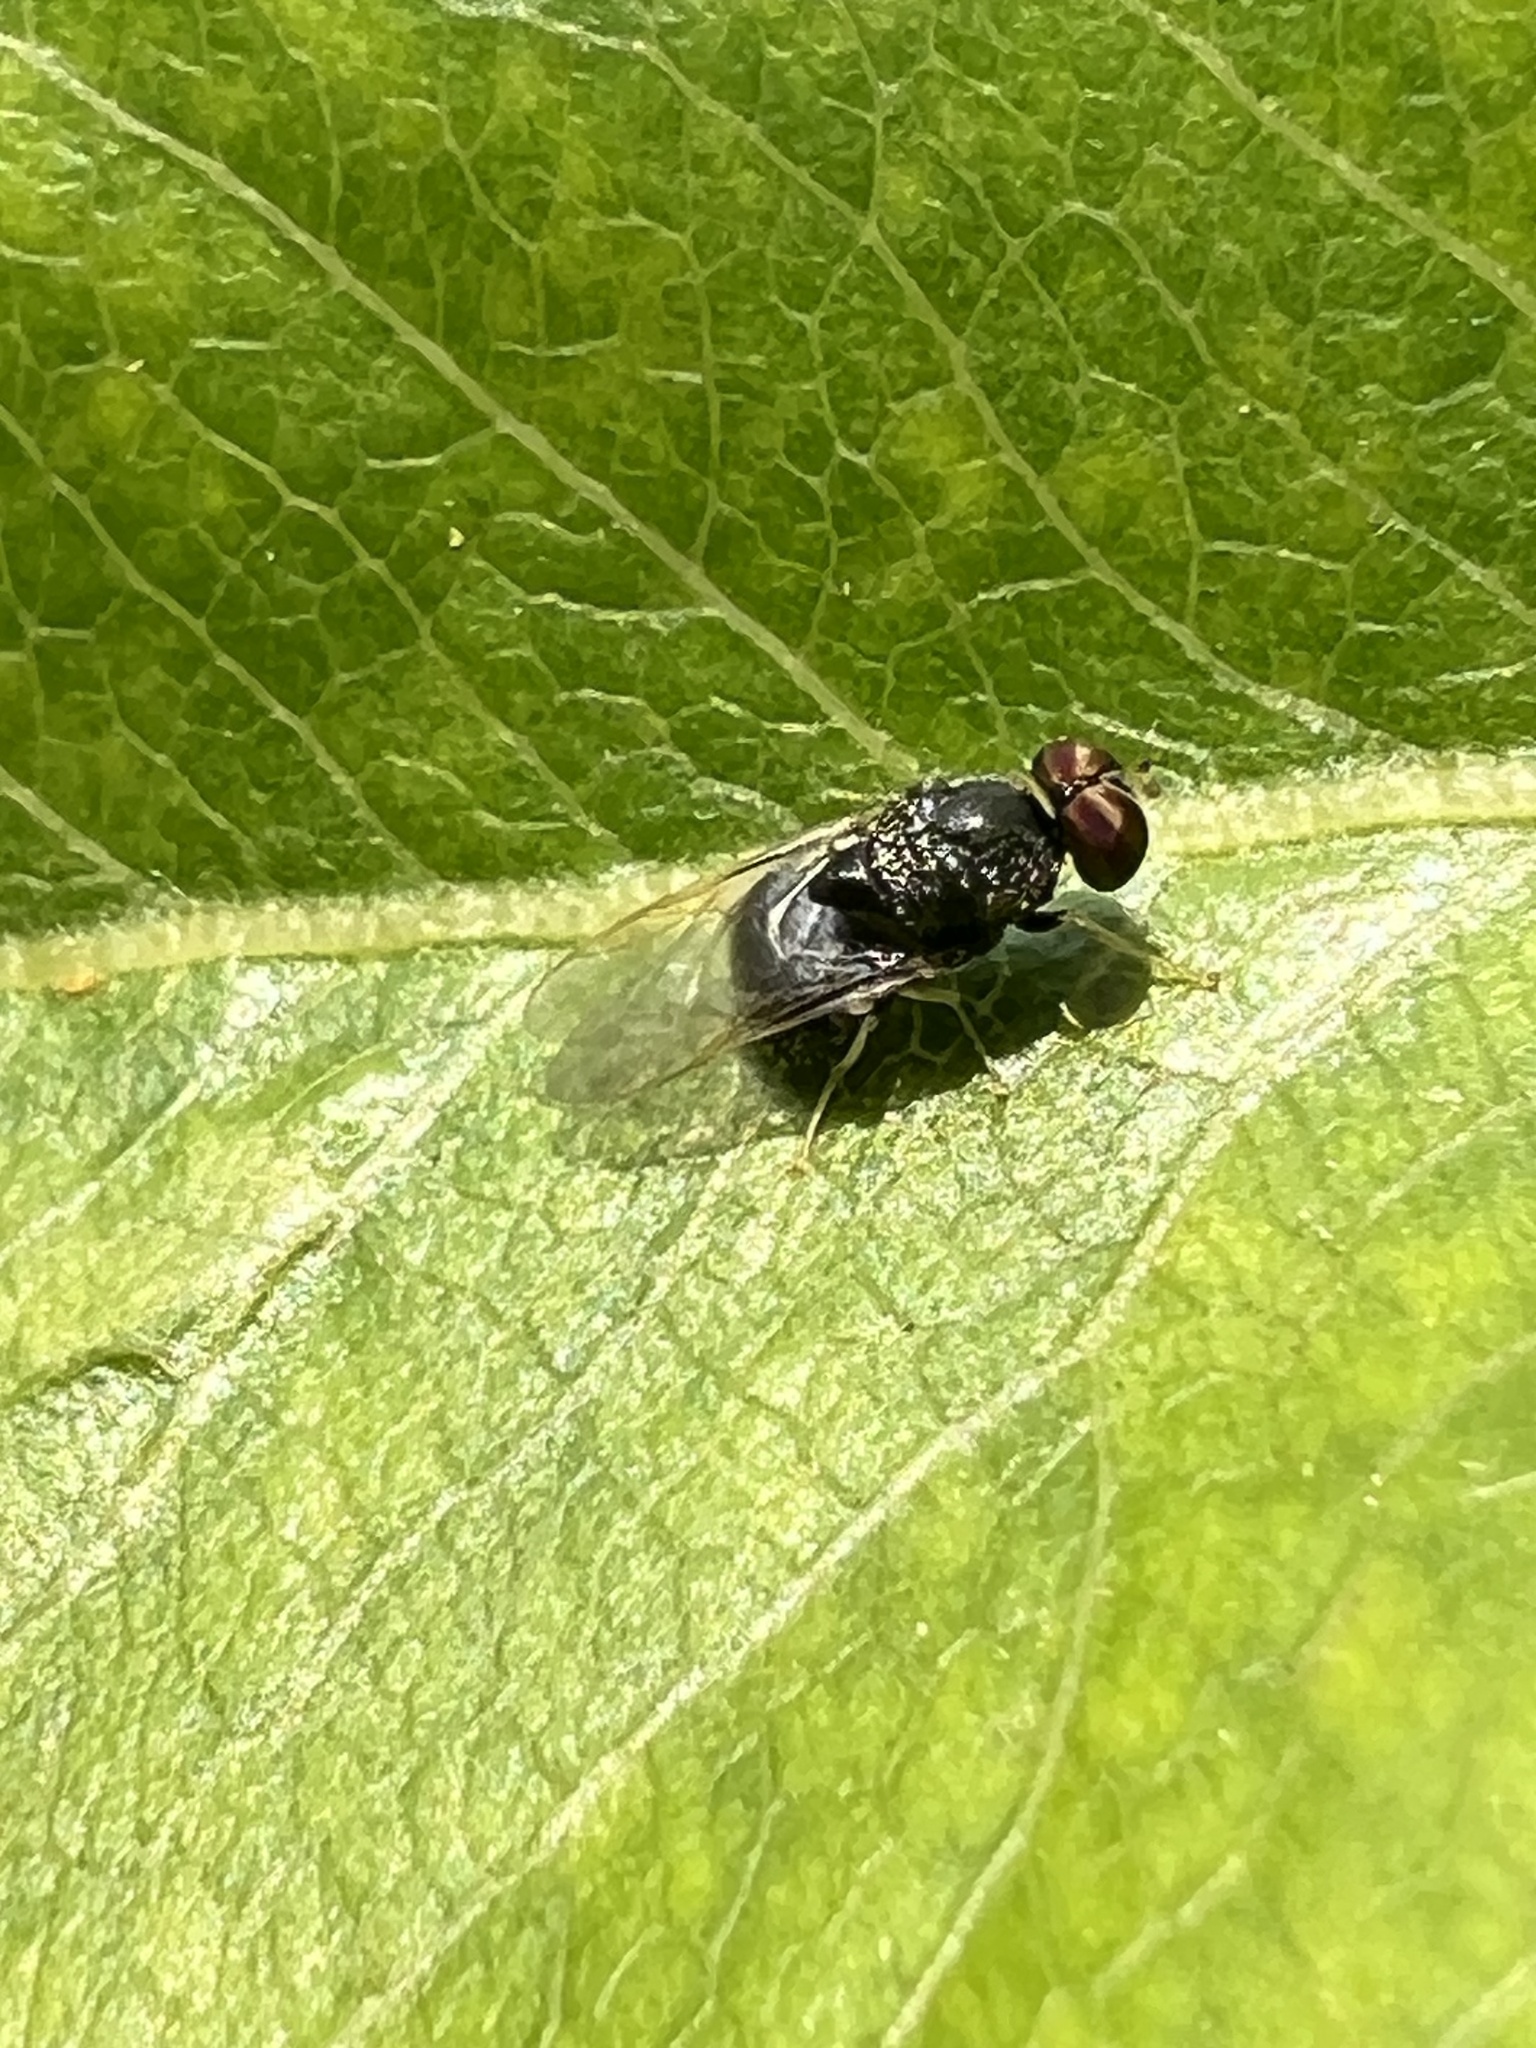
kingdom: Animalia
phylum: Arthropoda
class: Insecta
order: Diptera
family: Stratiomyidae
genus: Gowdeyana
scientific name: Gowdeyana punctifera
